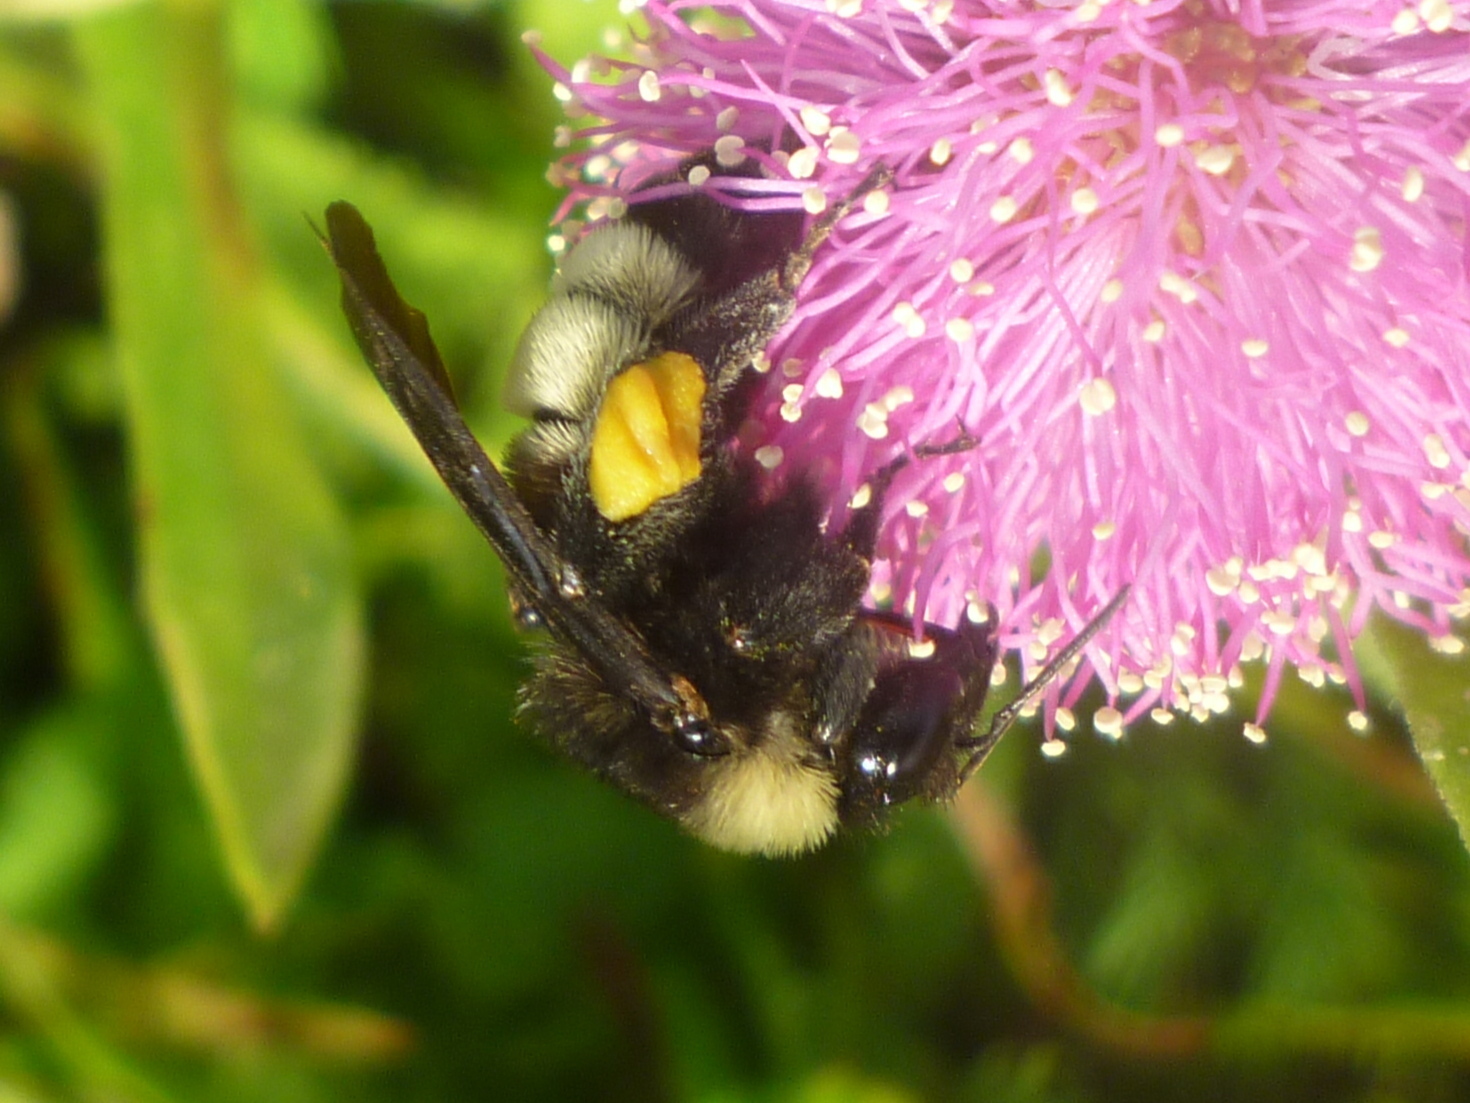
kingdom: Animalia
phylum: Arthropoda
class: Insecta
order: Hymenoptera
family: Apidae
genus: Bombus
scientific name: Bombus pensylvanicus
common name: Bumble bee
